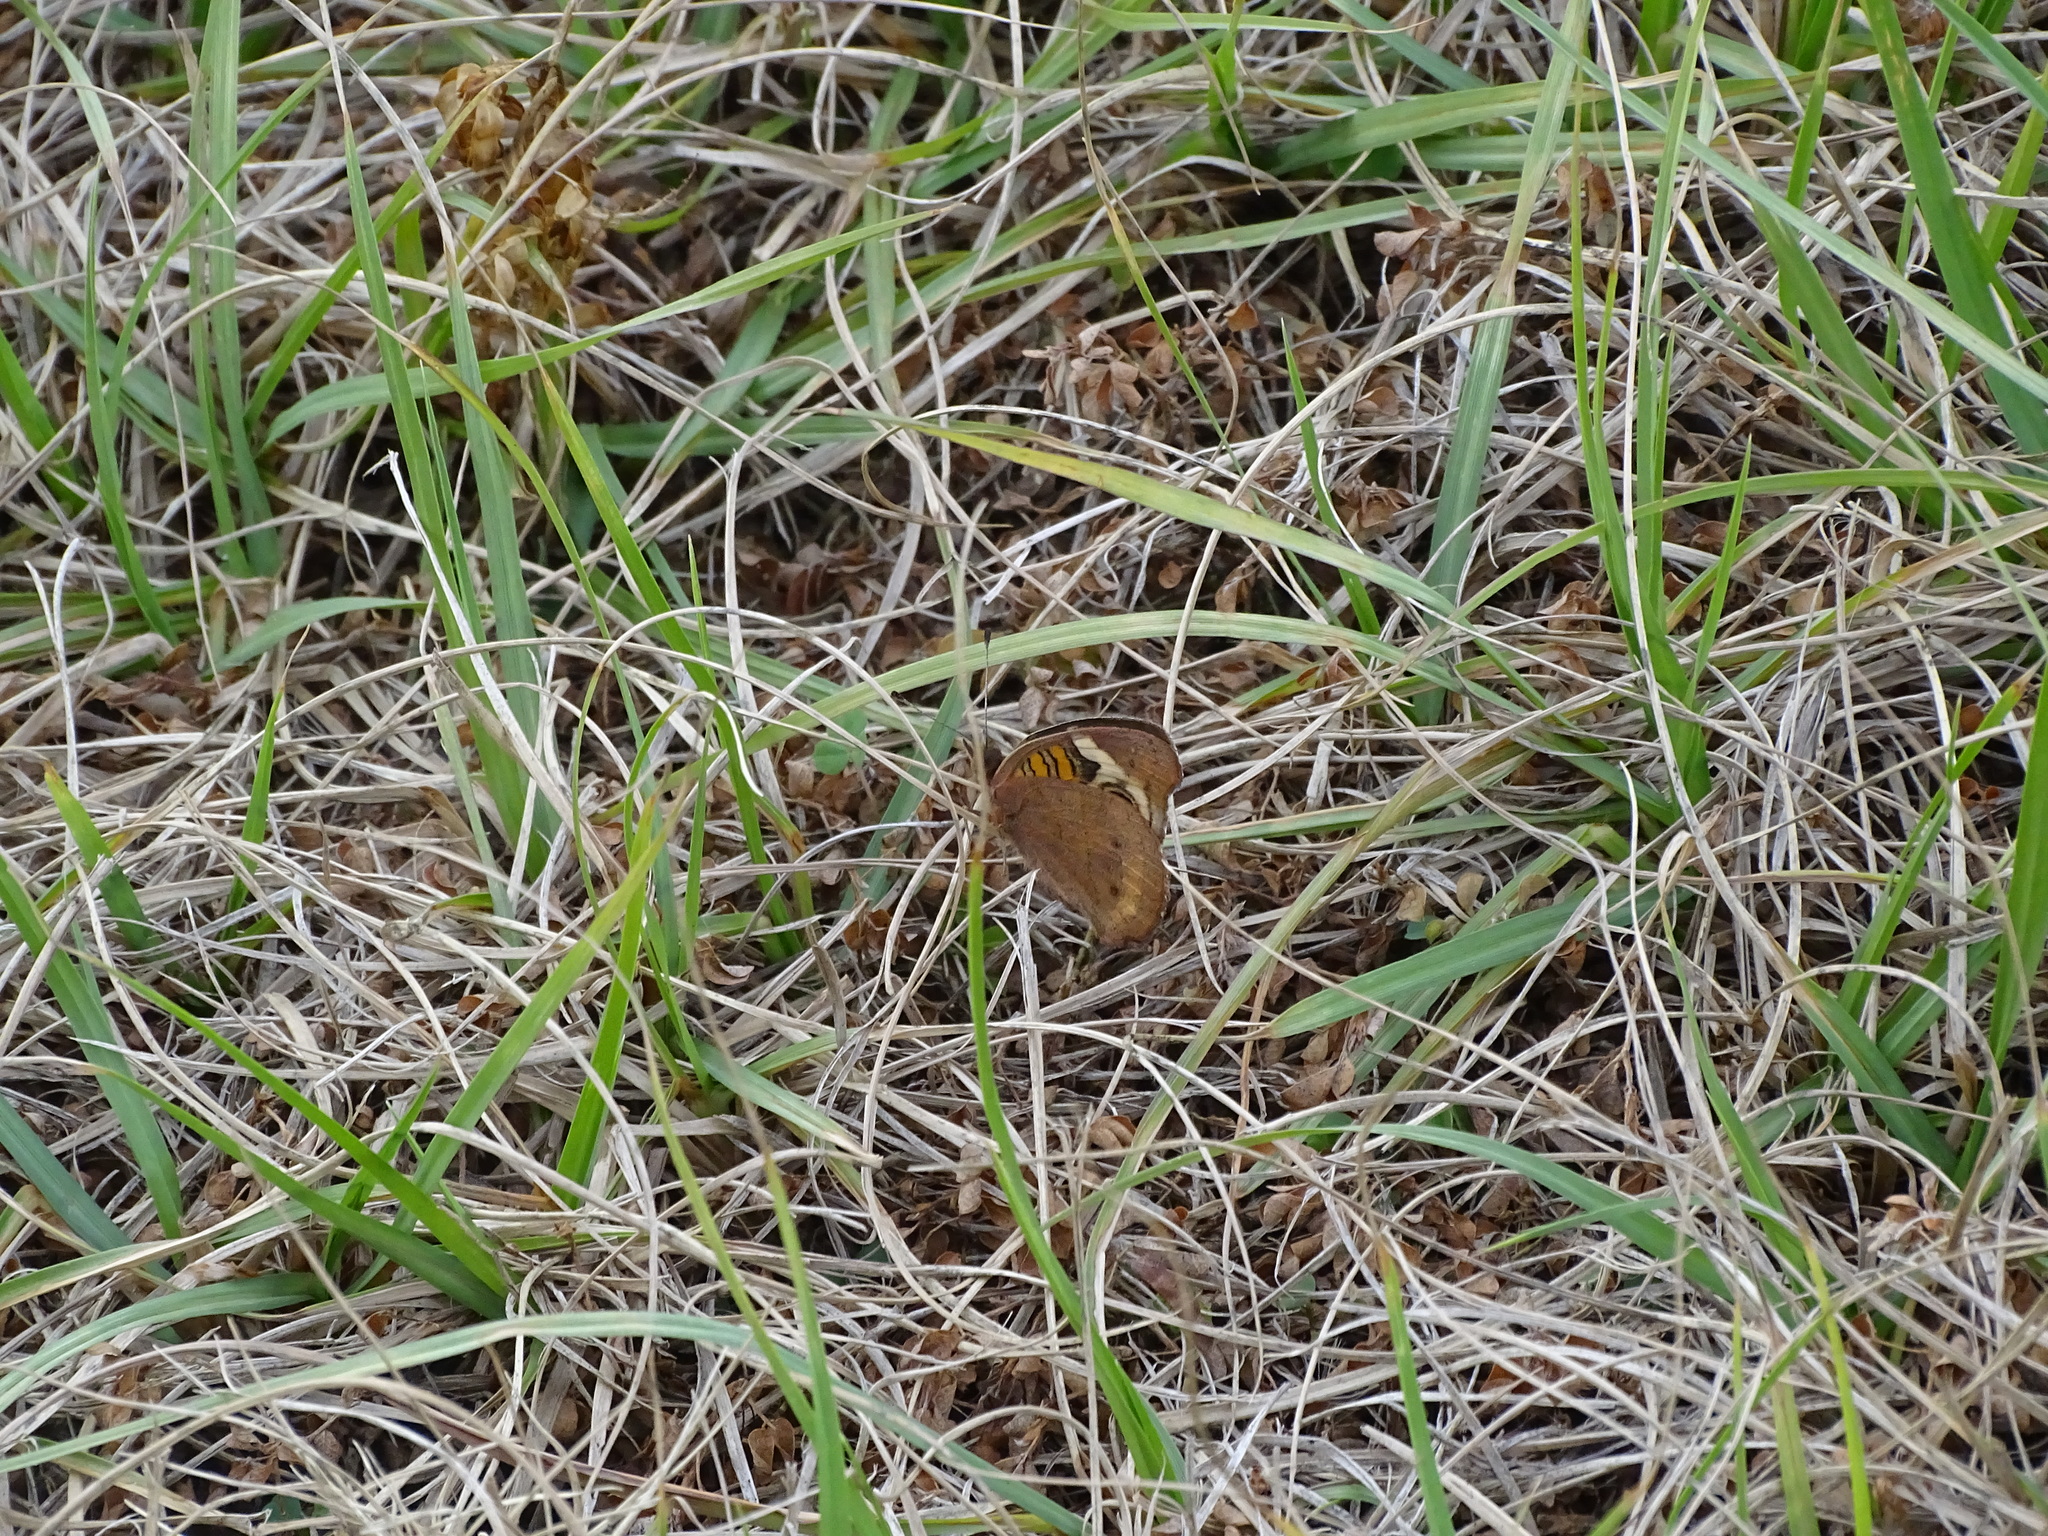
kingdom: Animalia
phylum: Arthropoda
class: Insecta
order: Lepidoptera
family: Nymphalidae
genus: Junonia
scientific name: Junonia coenia
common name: Common buckeye
